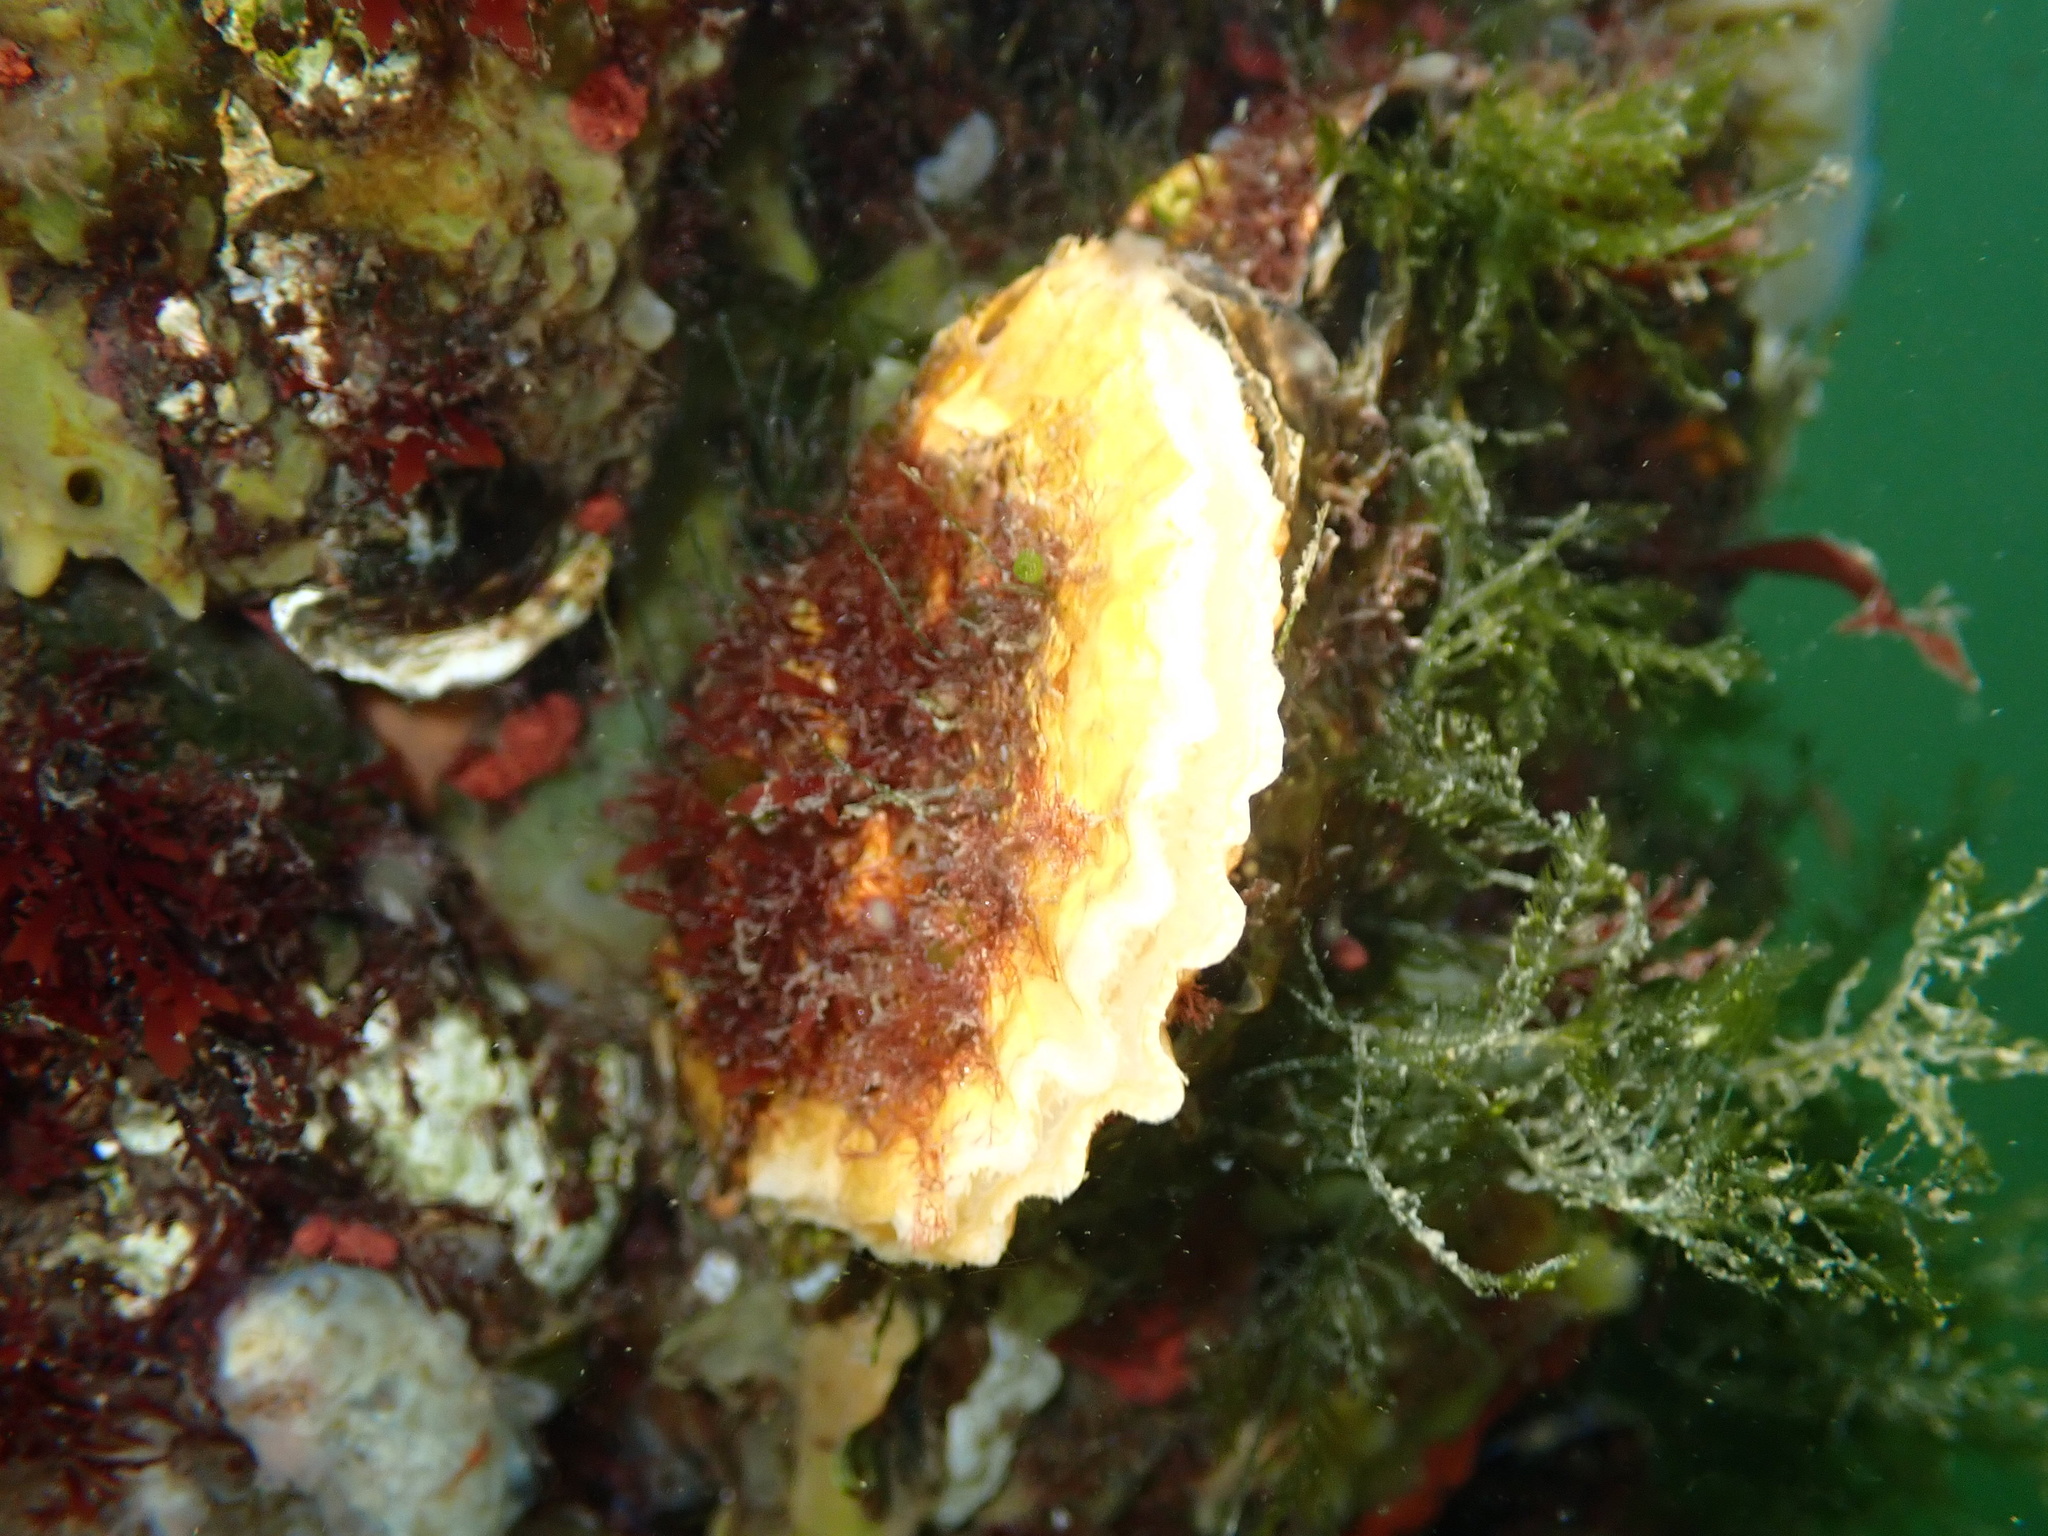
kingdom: Animalia
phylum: Mollusca
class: Bivalvia
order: Ostreida
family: Ostreidae
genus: Ostrea
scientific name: Ostrea edulis
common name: Flat oyster
